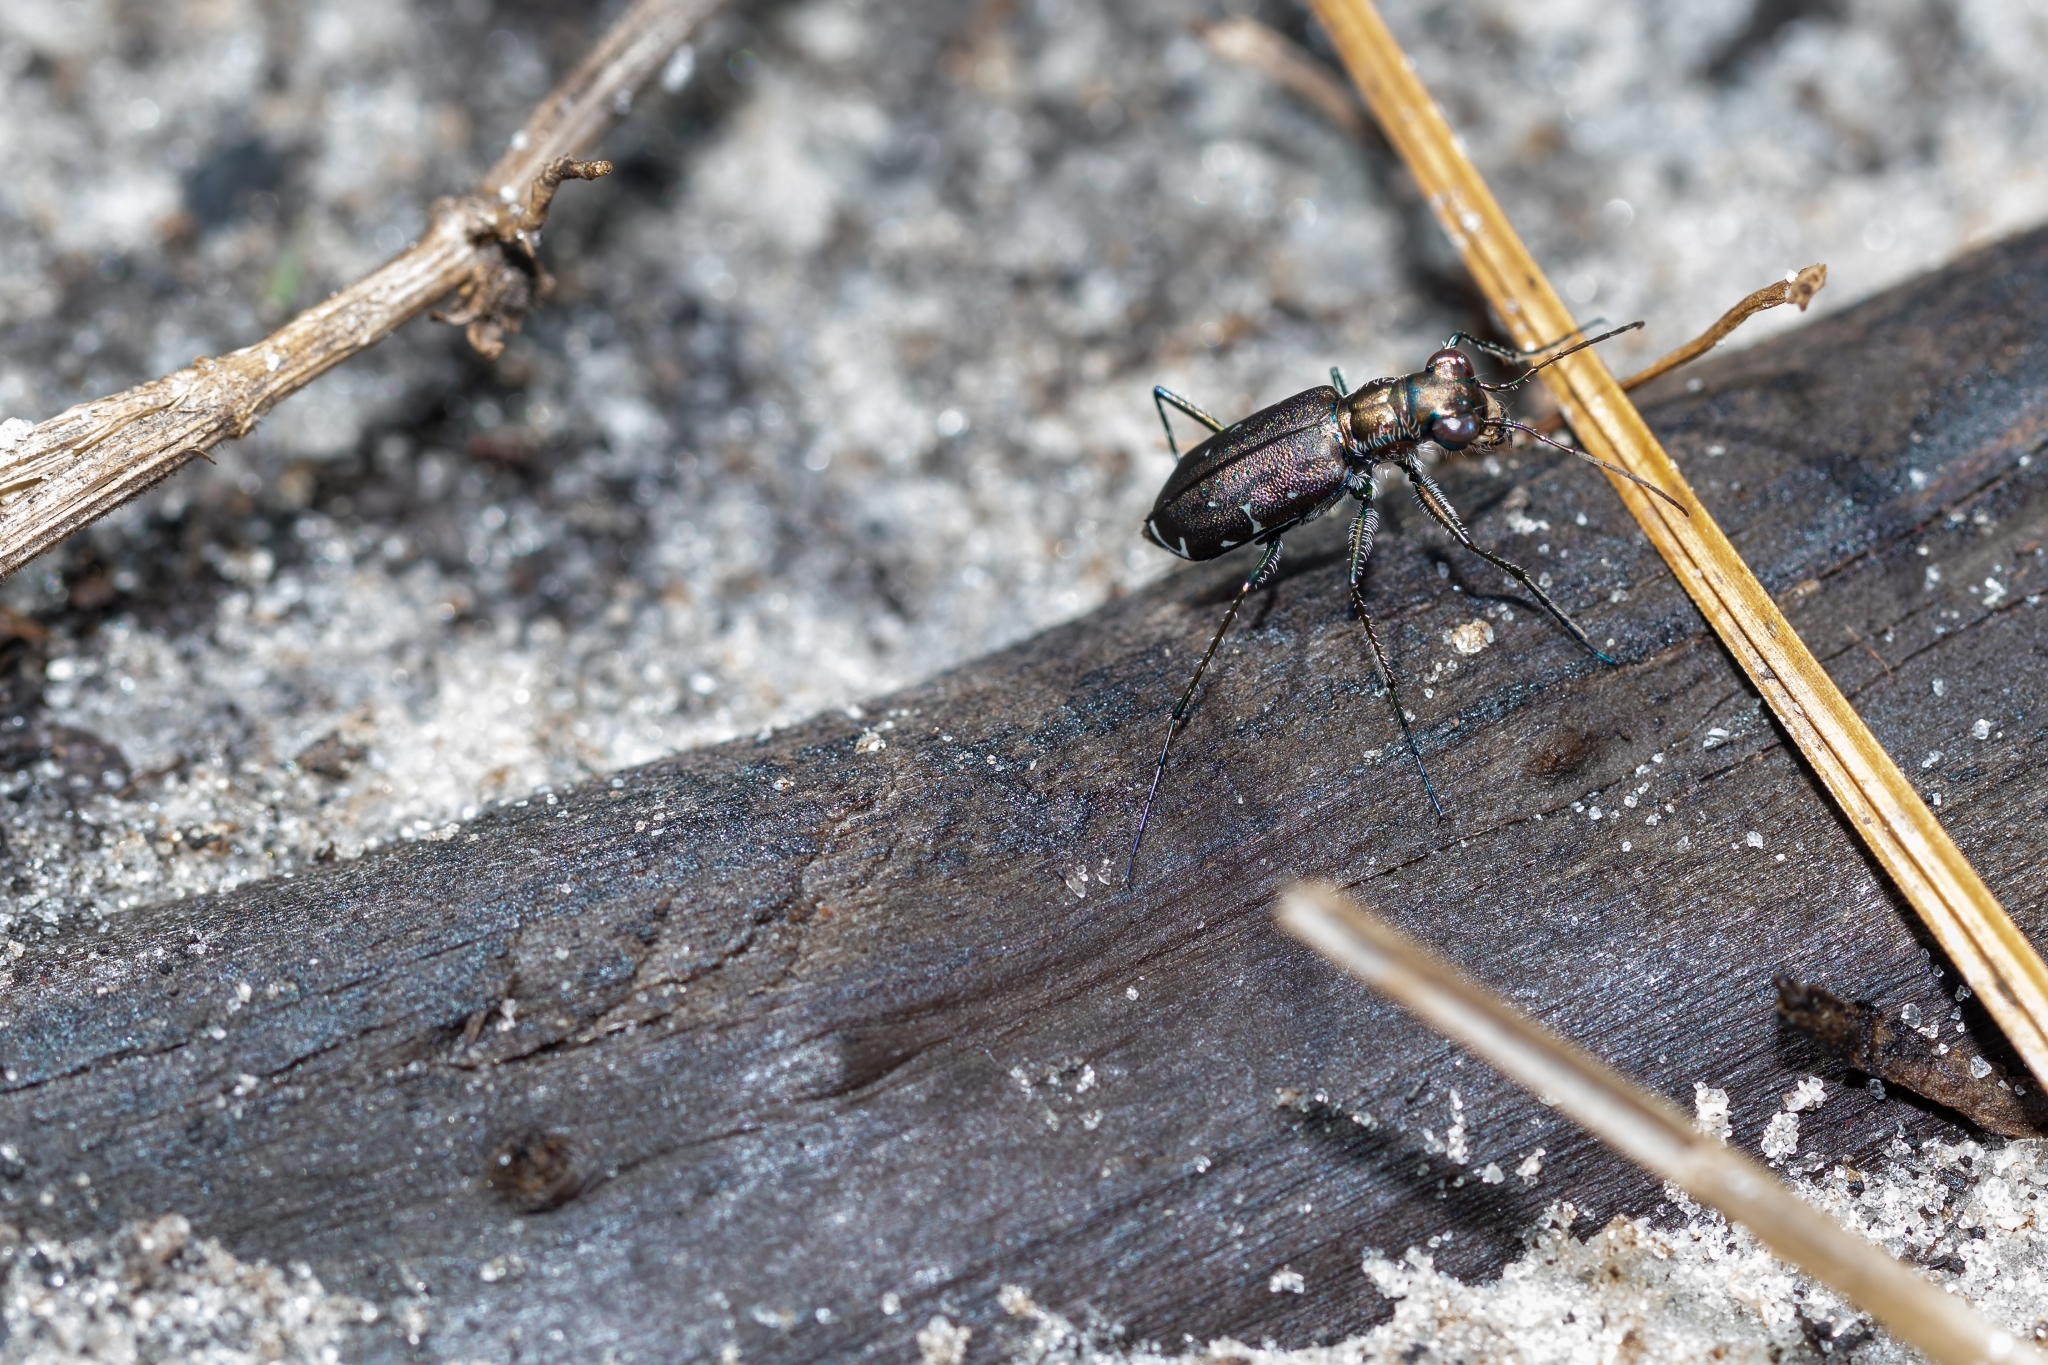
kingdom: Animalia
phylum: Arthropoda
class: Insecta
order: Coleoptera
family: Carabidae
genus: Cicindela
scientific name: Cicindela punctulata
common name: Punctured tiger beetle
